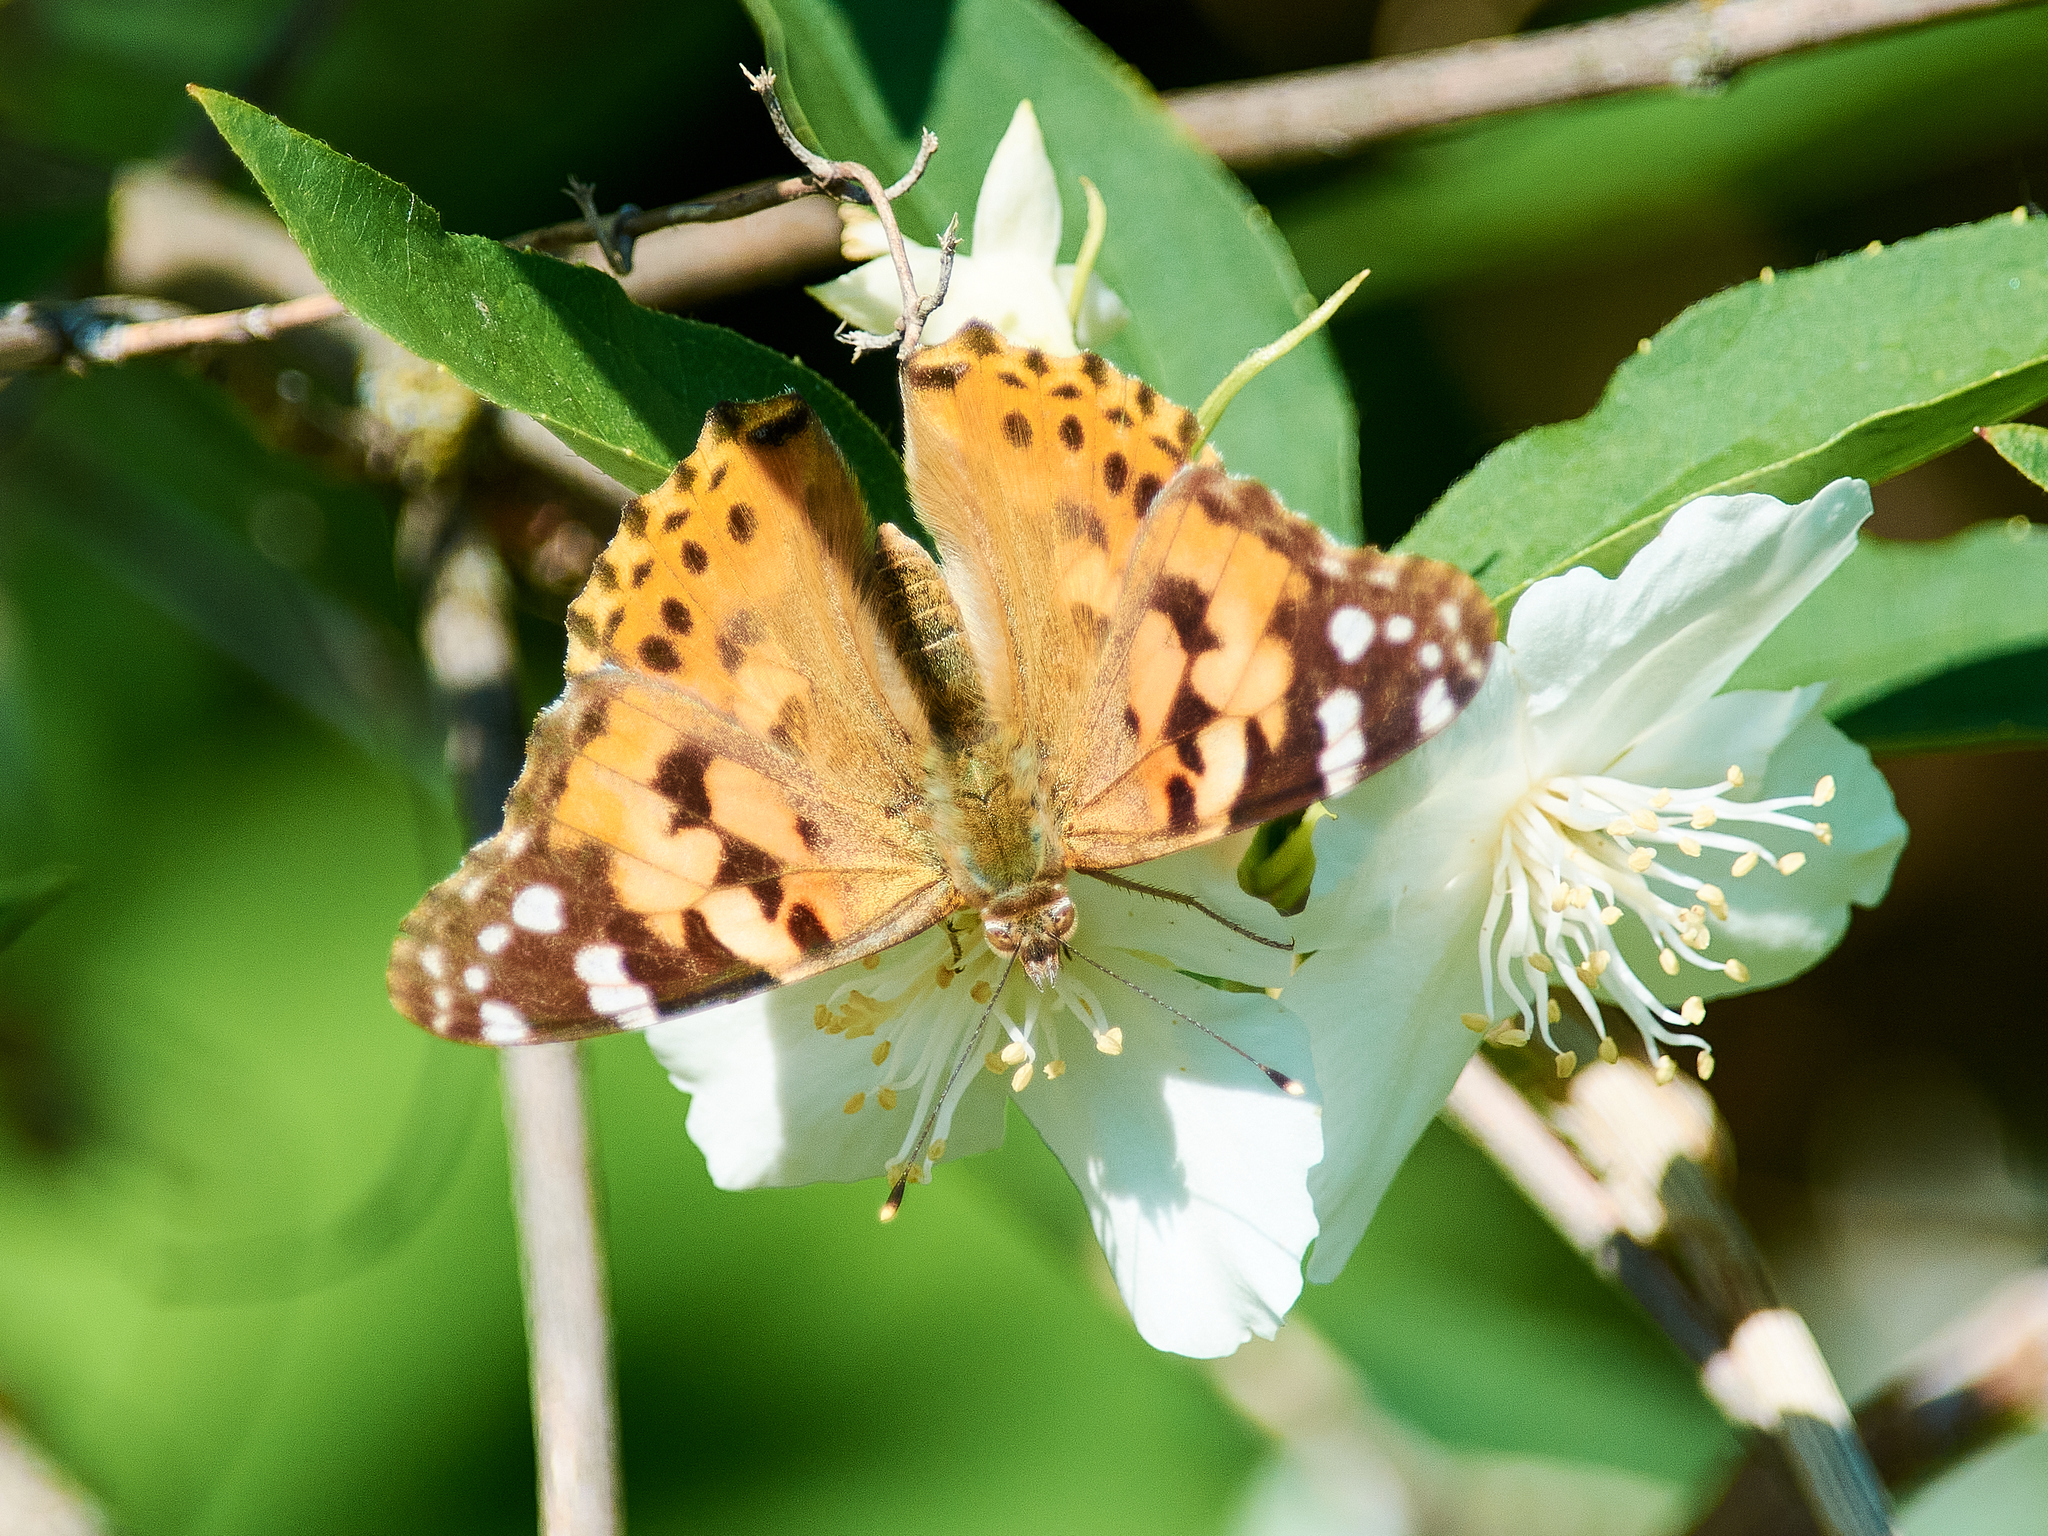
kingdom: Animalia
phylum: Arthropoda
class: Insecta
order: Lepidoptera
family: Nymphalidae
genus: Vanessa
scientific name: Vanessa cardui
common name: Painted lady
